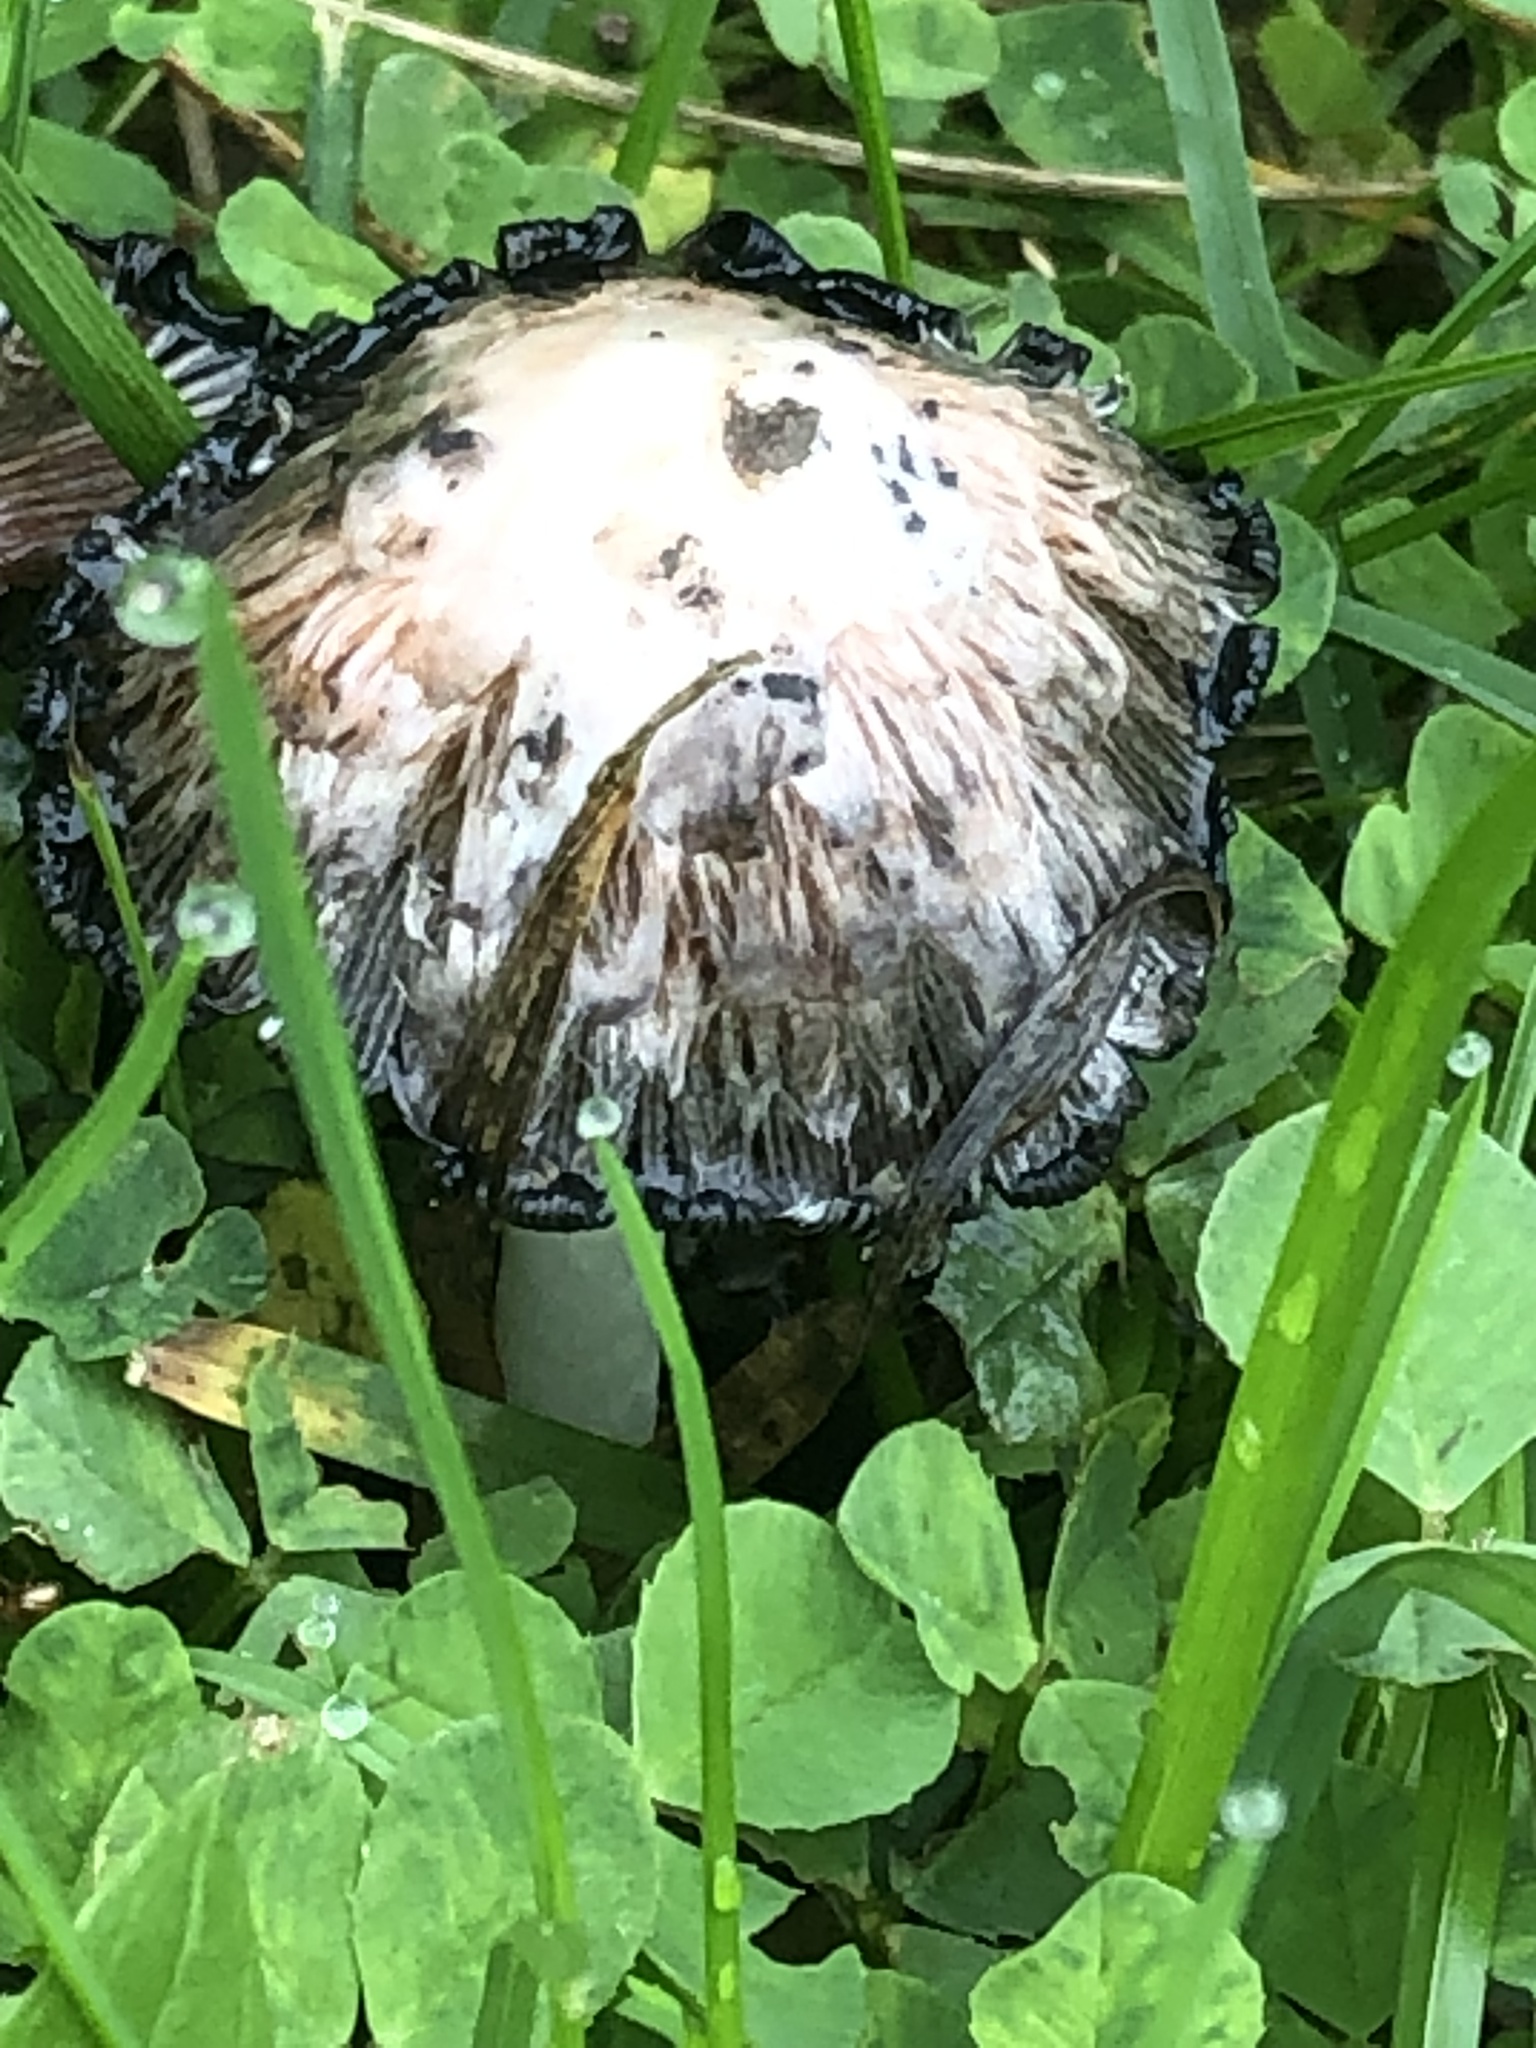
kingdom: Fungi
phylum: Basidiomycota
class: Agaricomycetes
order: Agaricales
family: Agaricaceae
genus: Coprinus
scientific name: Coprinus comatus
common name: Lawyer's wig
